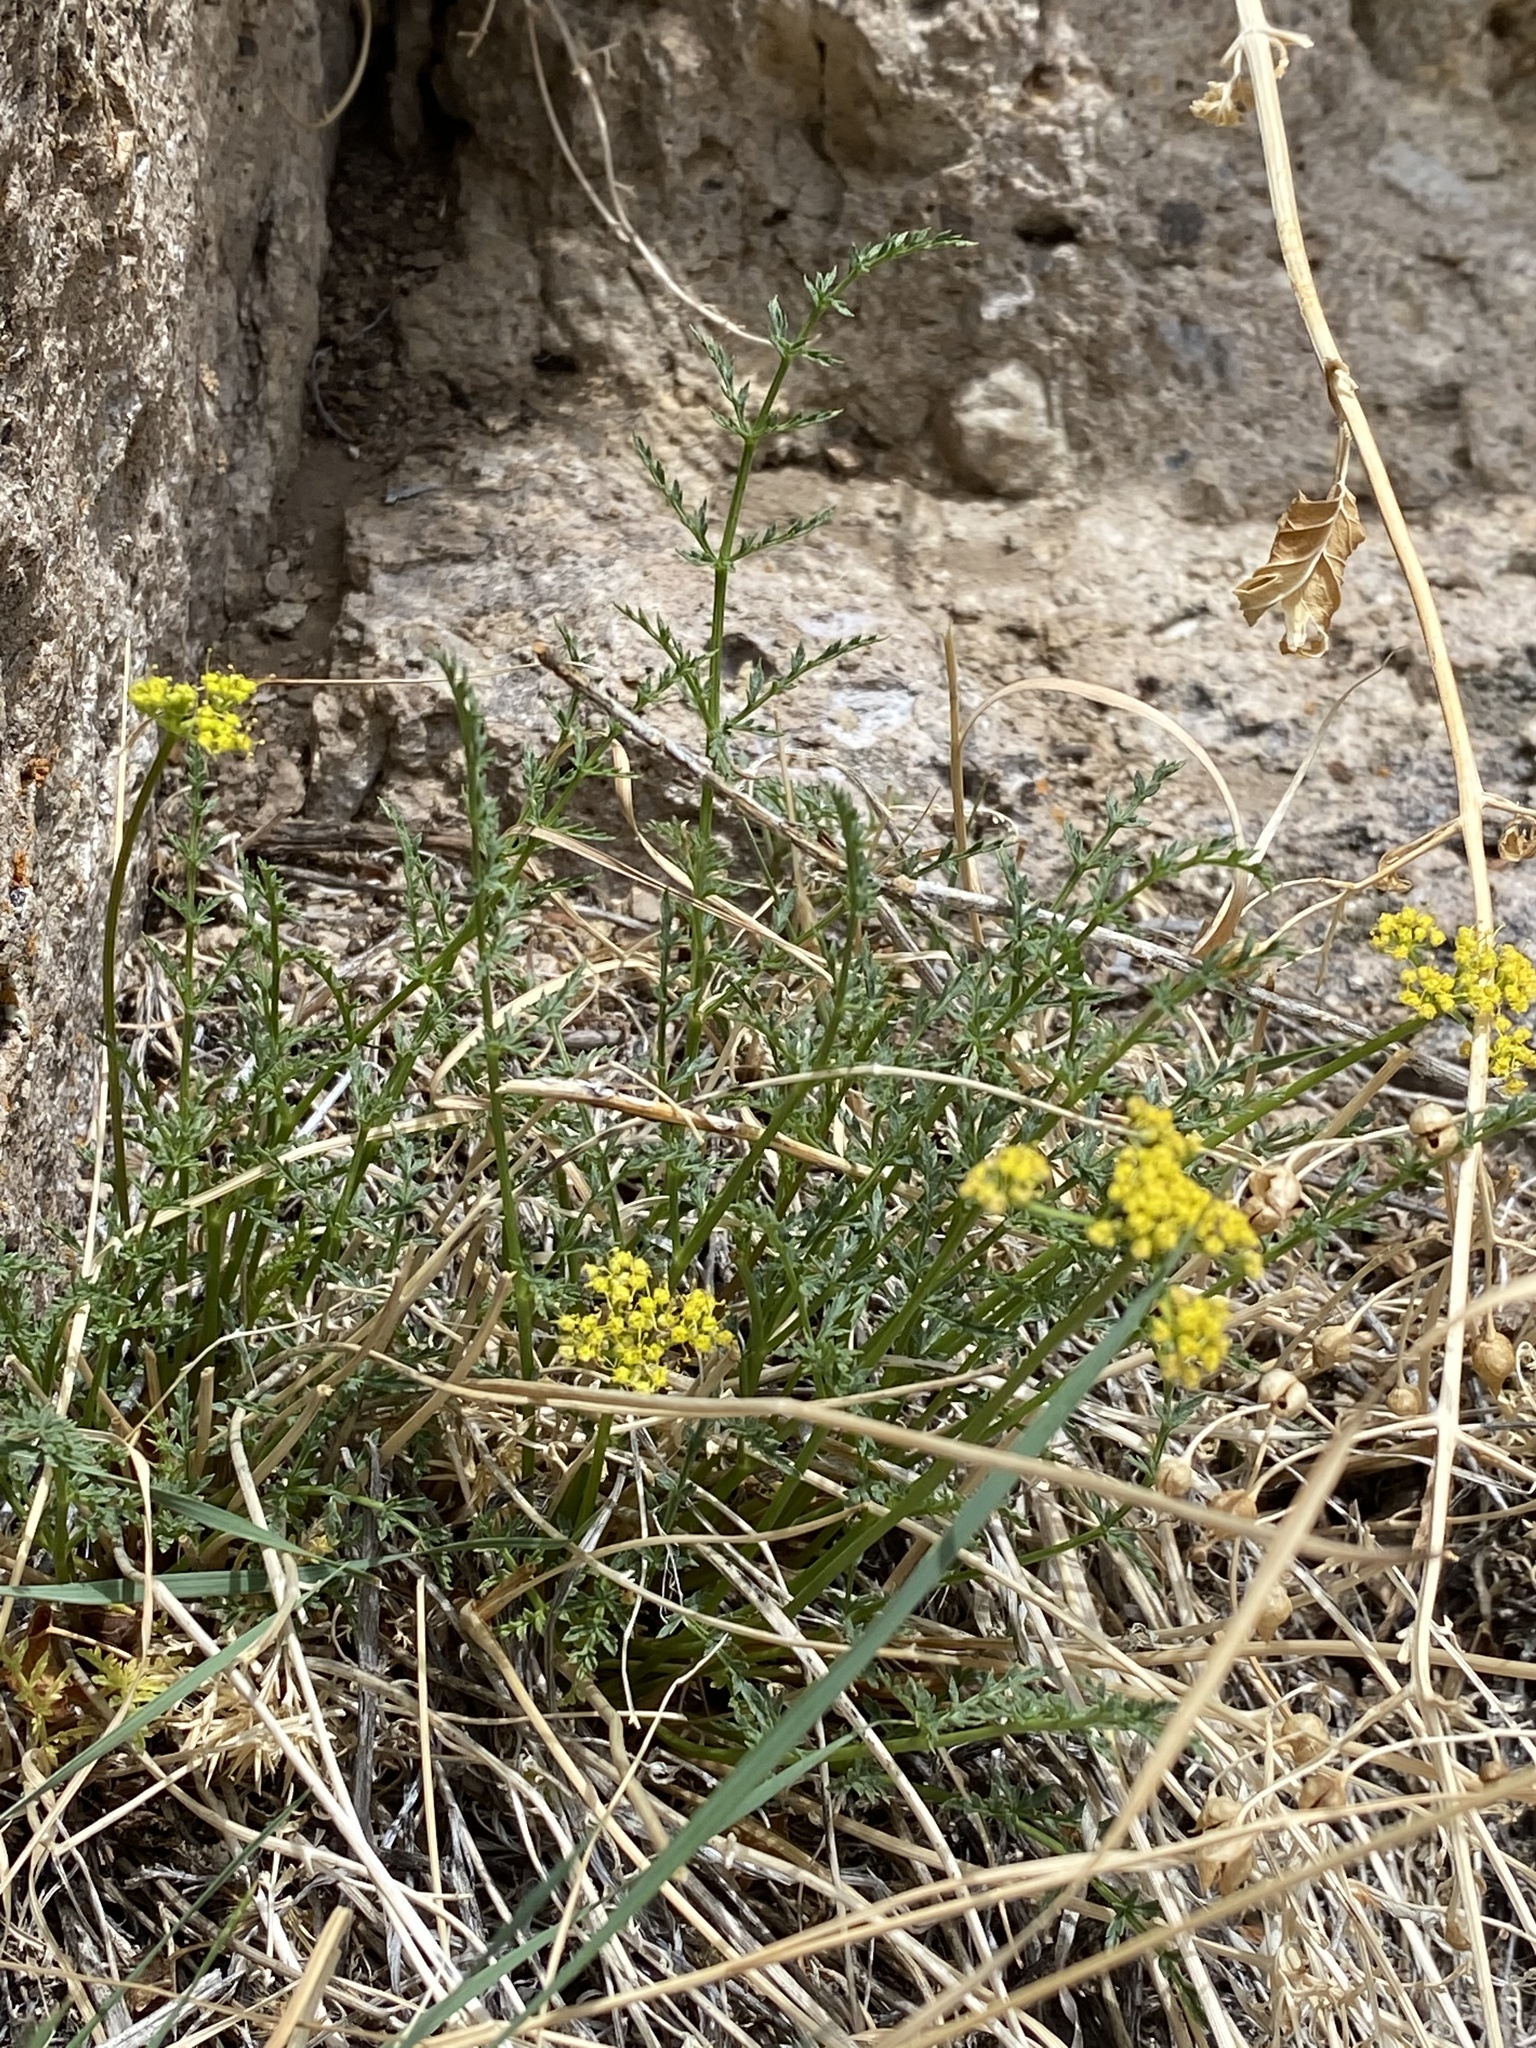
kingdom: Plantae
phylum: Tracheophyta
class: Magnoliopsida
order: Apiales
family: Apiaceae
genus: Pteryxia
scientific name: Pteryxia petraea
